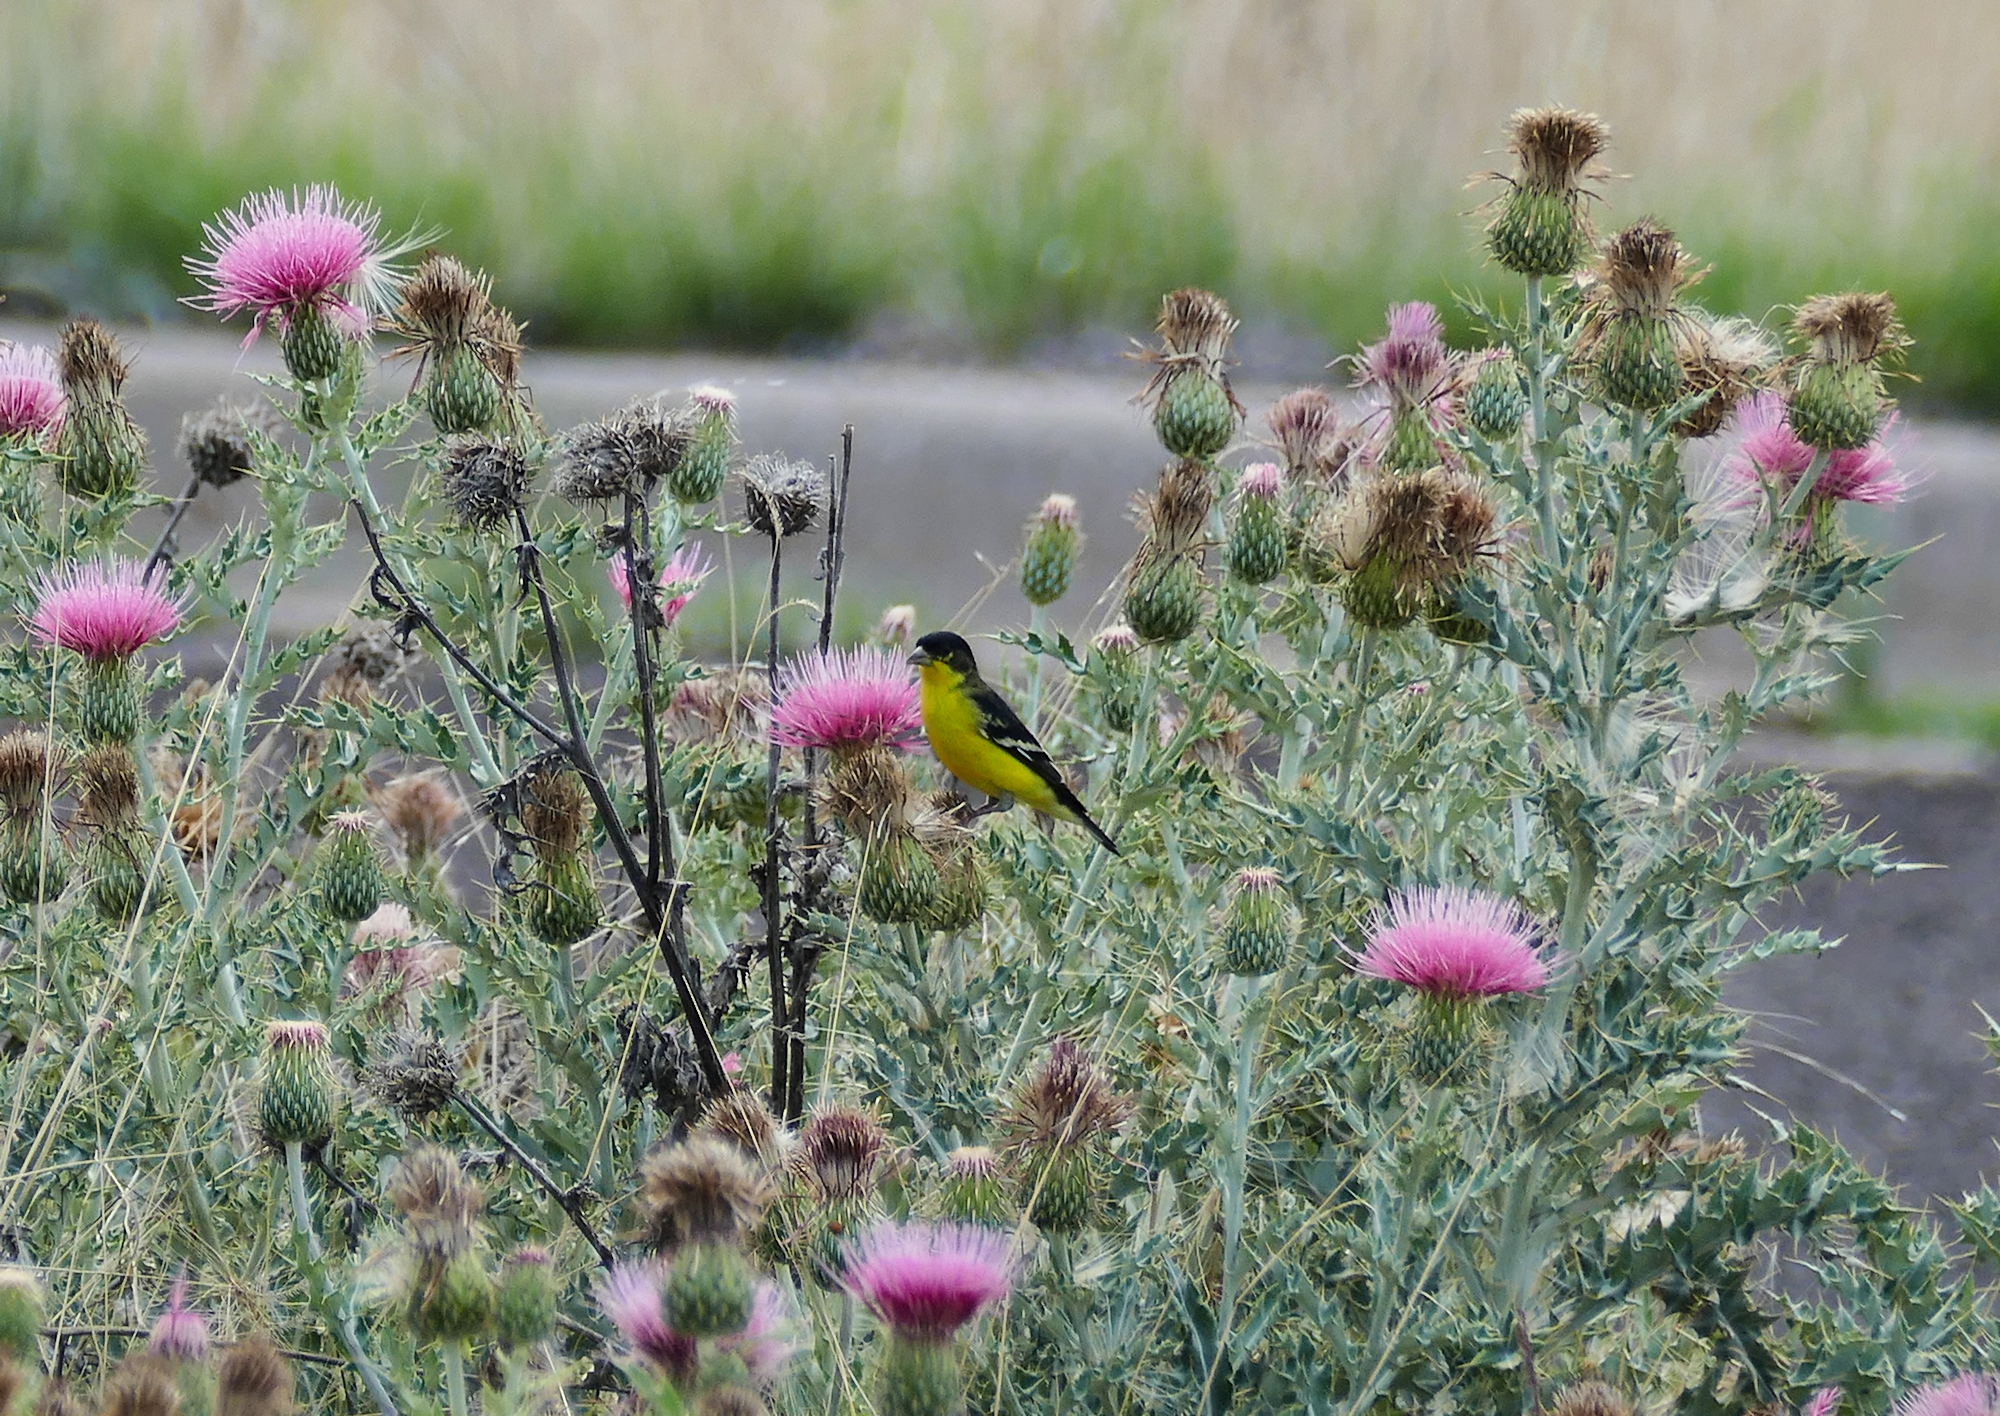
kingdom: Animalia
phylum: Chordata
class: Aves
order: Passeriformes
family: Fringillidae
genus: Spinus
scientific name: Spinus psaltria
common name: Lesser goldfinch
